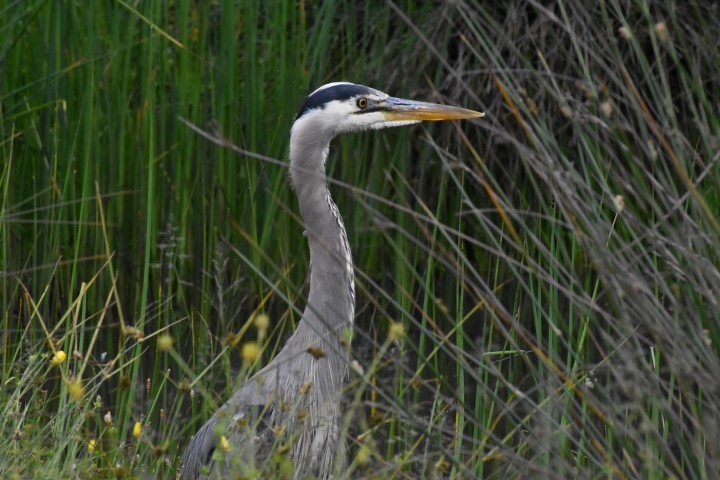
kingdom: Animalia
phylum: Chordata
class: Aves
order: Pelecaniformes
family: Ardeidae
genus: Ardea
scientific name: Ardea herodias
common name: Great blue heron
